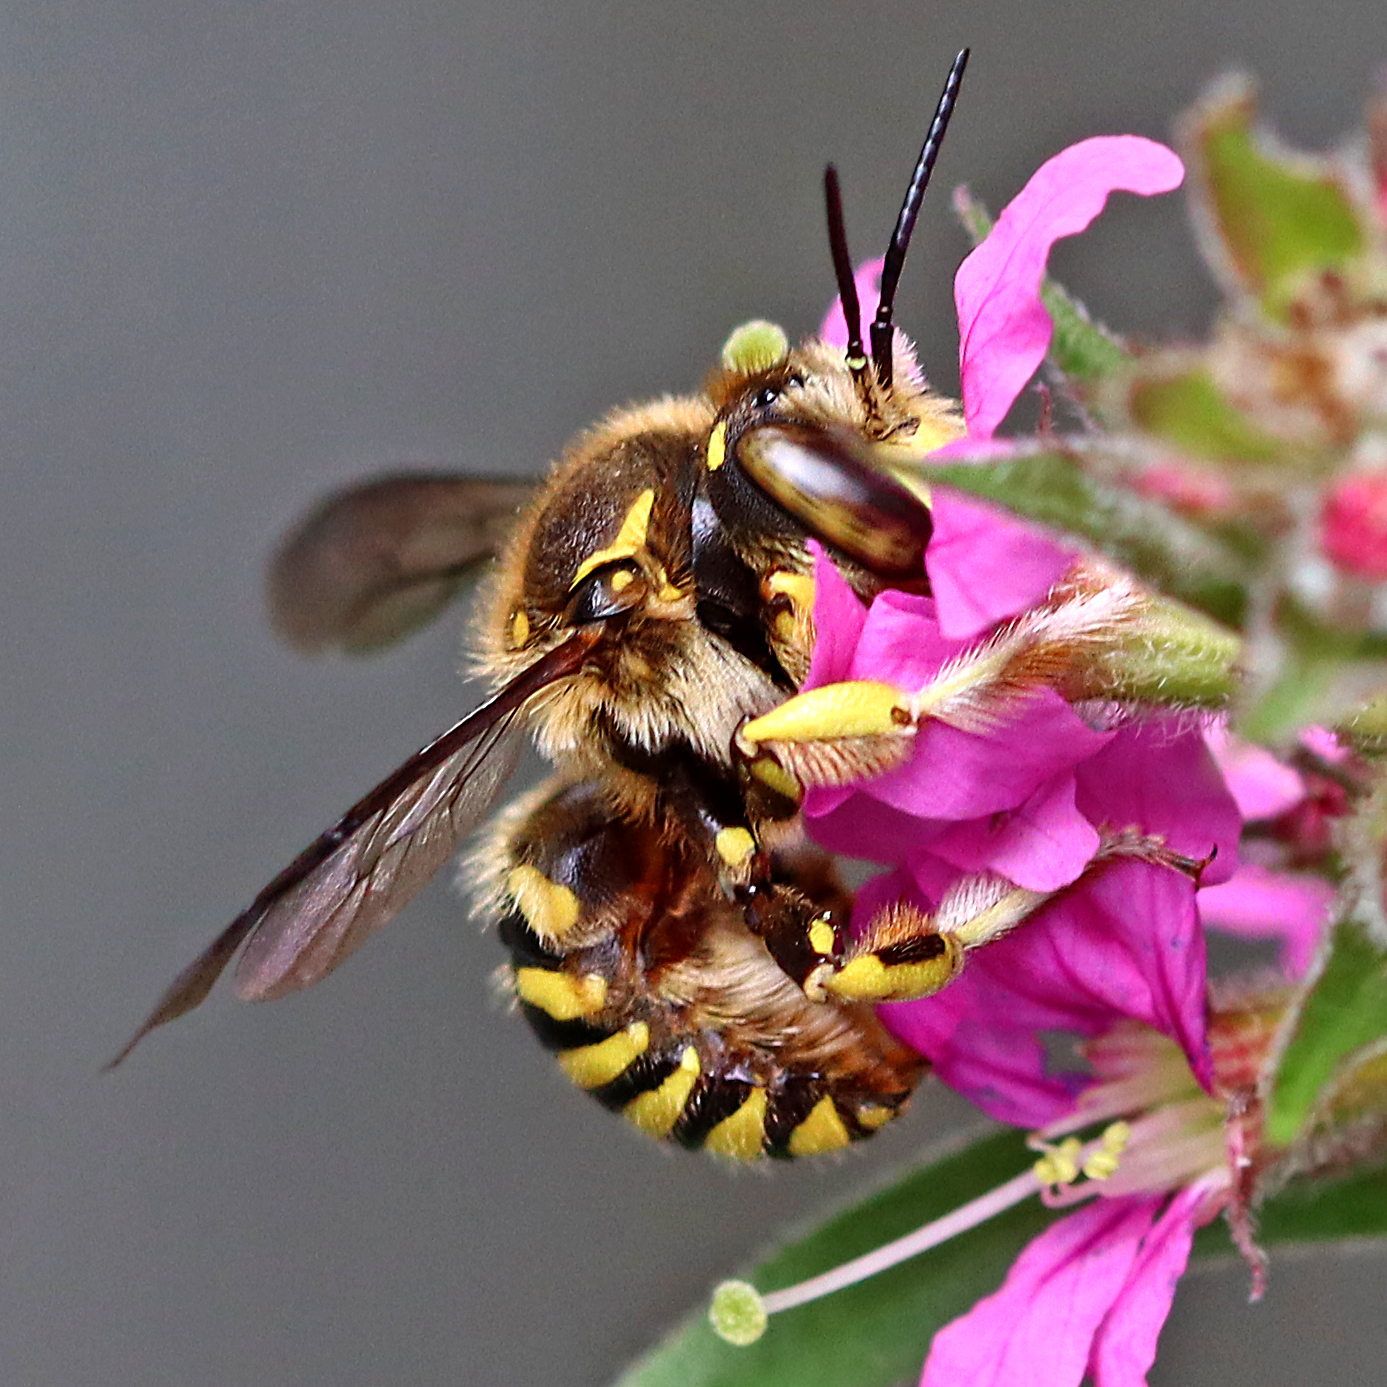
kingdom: Animalia
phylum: Arthropoda
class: Insecta
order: Hymenoptera
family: Megachilidae
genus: Anthidium
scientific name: Anthidium florentinum
